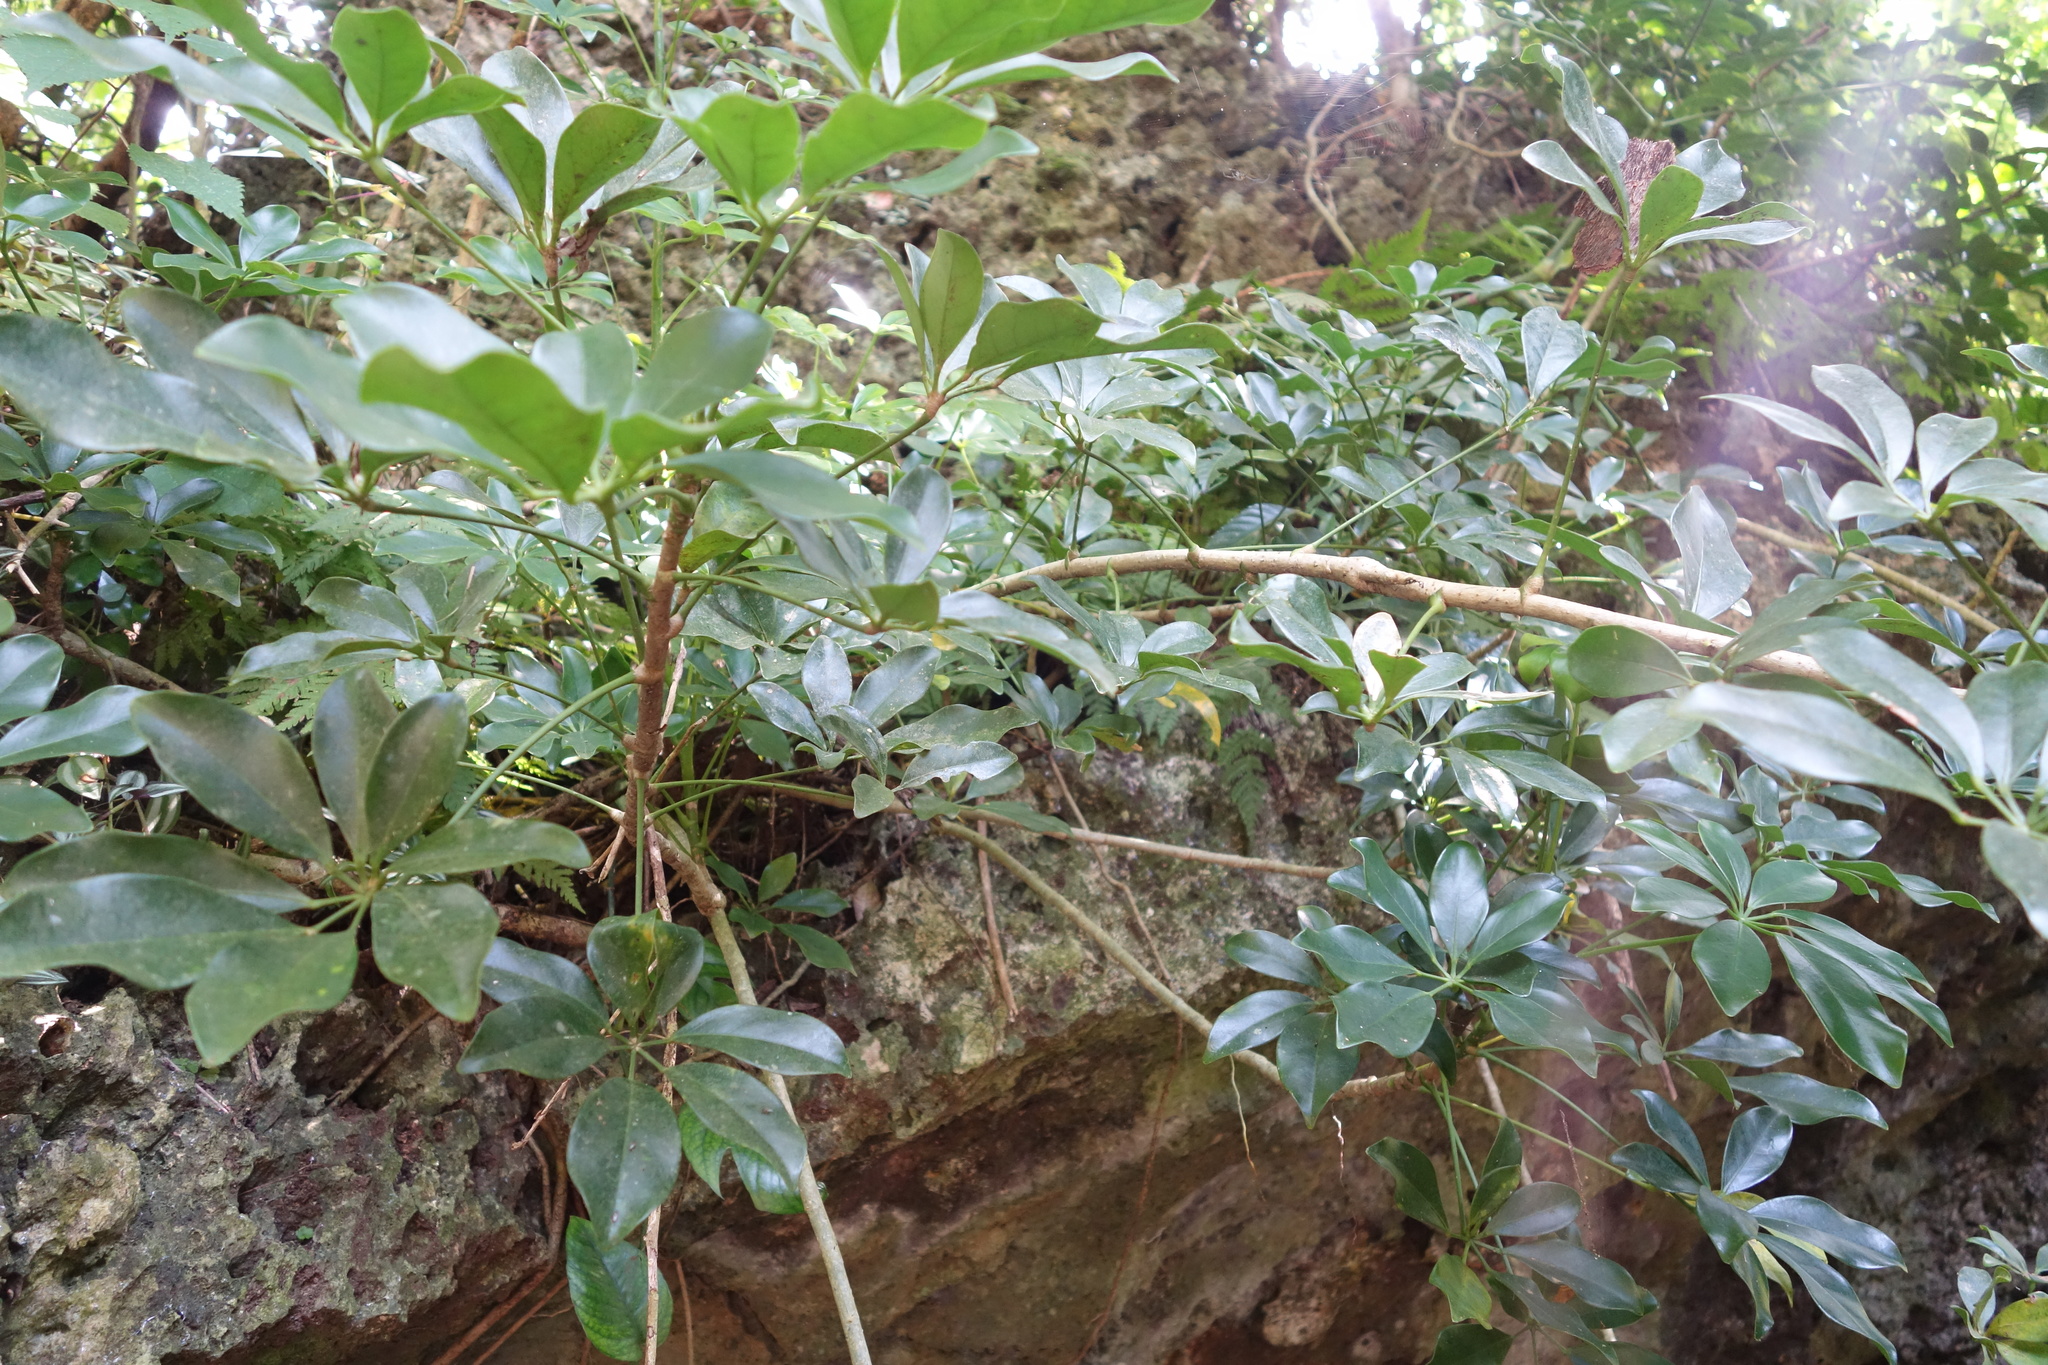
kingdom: Plantae
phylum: Tracheophyta
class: Magnoliopsida
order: Apiales
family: Araliaceae
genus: Heptapleurum
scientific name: Heptapleurum arboricola
